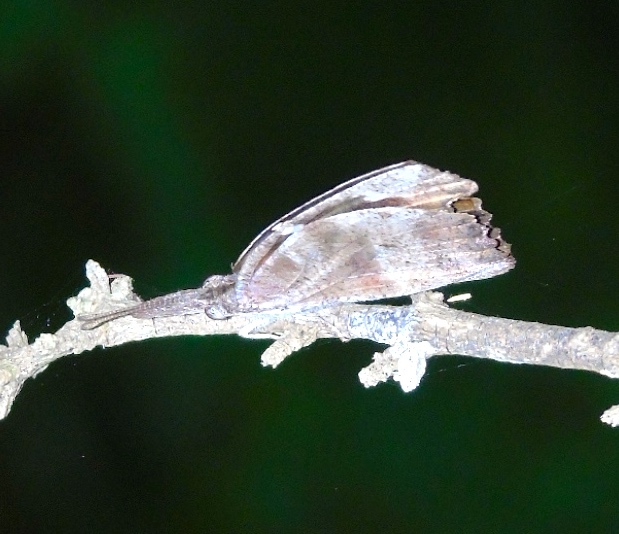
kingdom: Animalia
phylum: Arthropoda
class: Insecta
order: Lepidoptera
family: Nymphalidae
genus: Libytheana
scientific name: Libytheana carinenta
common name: American snout
